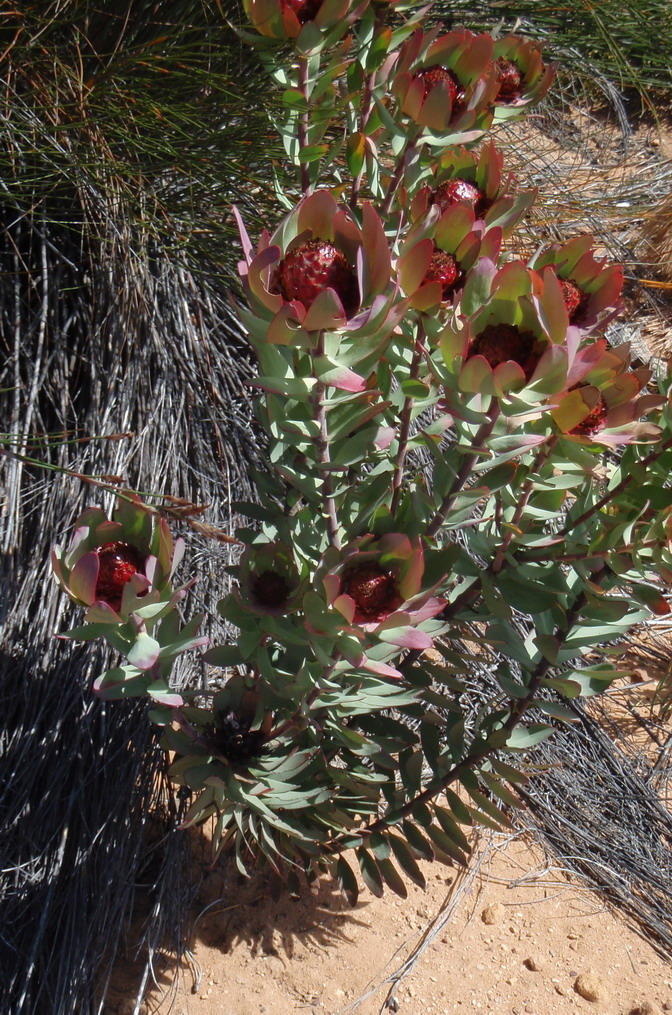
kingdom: Plantae
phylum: Tracheophyta
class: Magnoliopsida
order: Proteales
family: Proteaceae
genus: Leucadendron
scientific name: Leucadendron tinctum
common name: Spicy conebush
